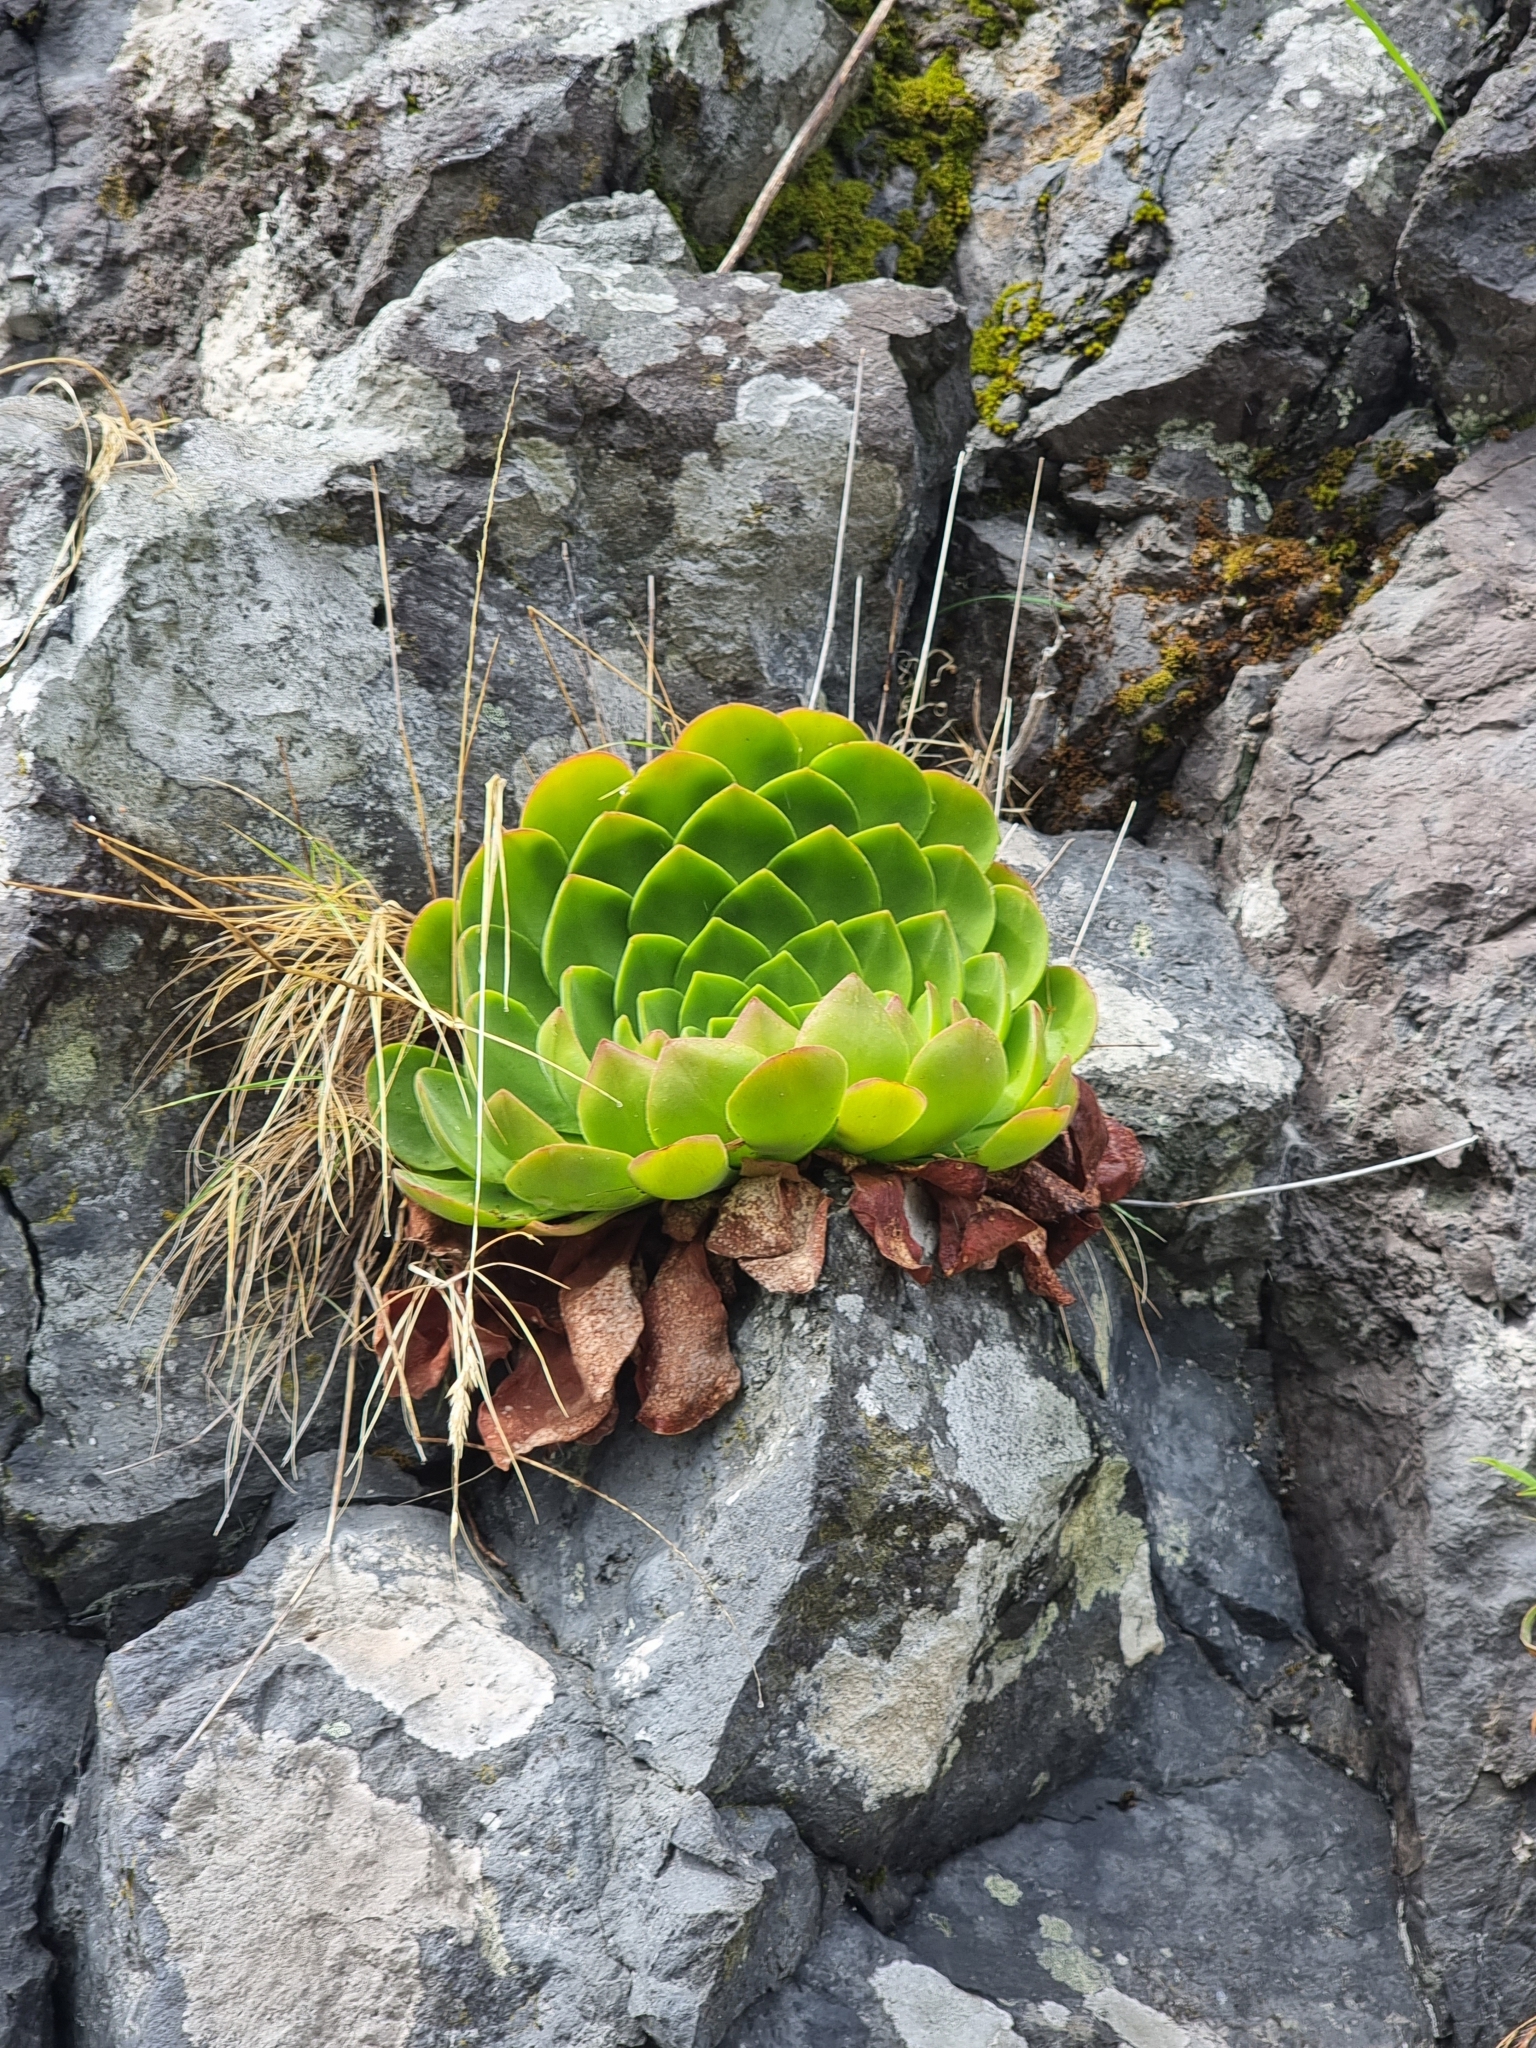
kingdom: Plantae
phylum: Tracheophyta
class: Magnoliopsida
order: Saxifragales
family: Crassulaceae
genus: Aeonium
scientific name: Aeonium glandulosum
